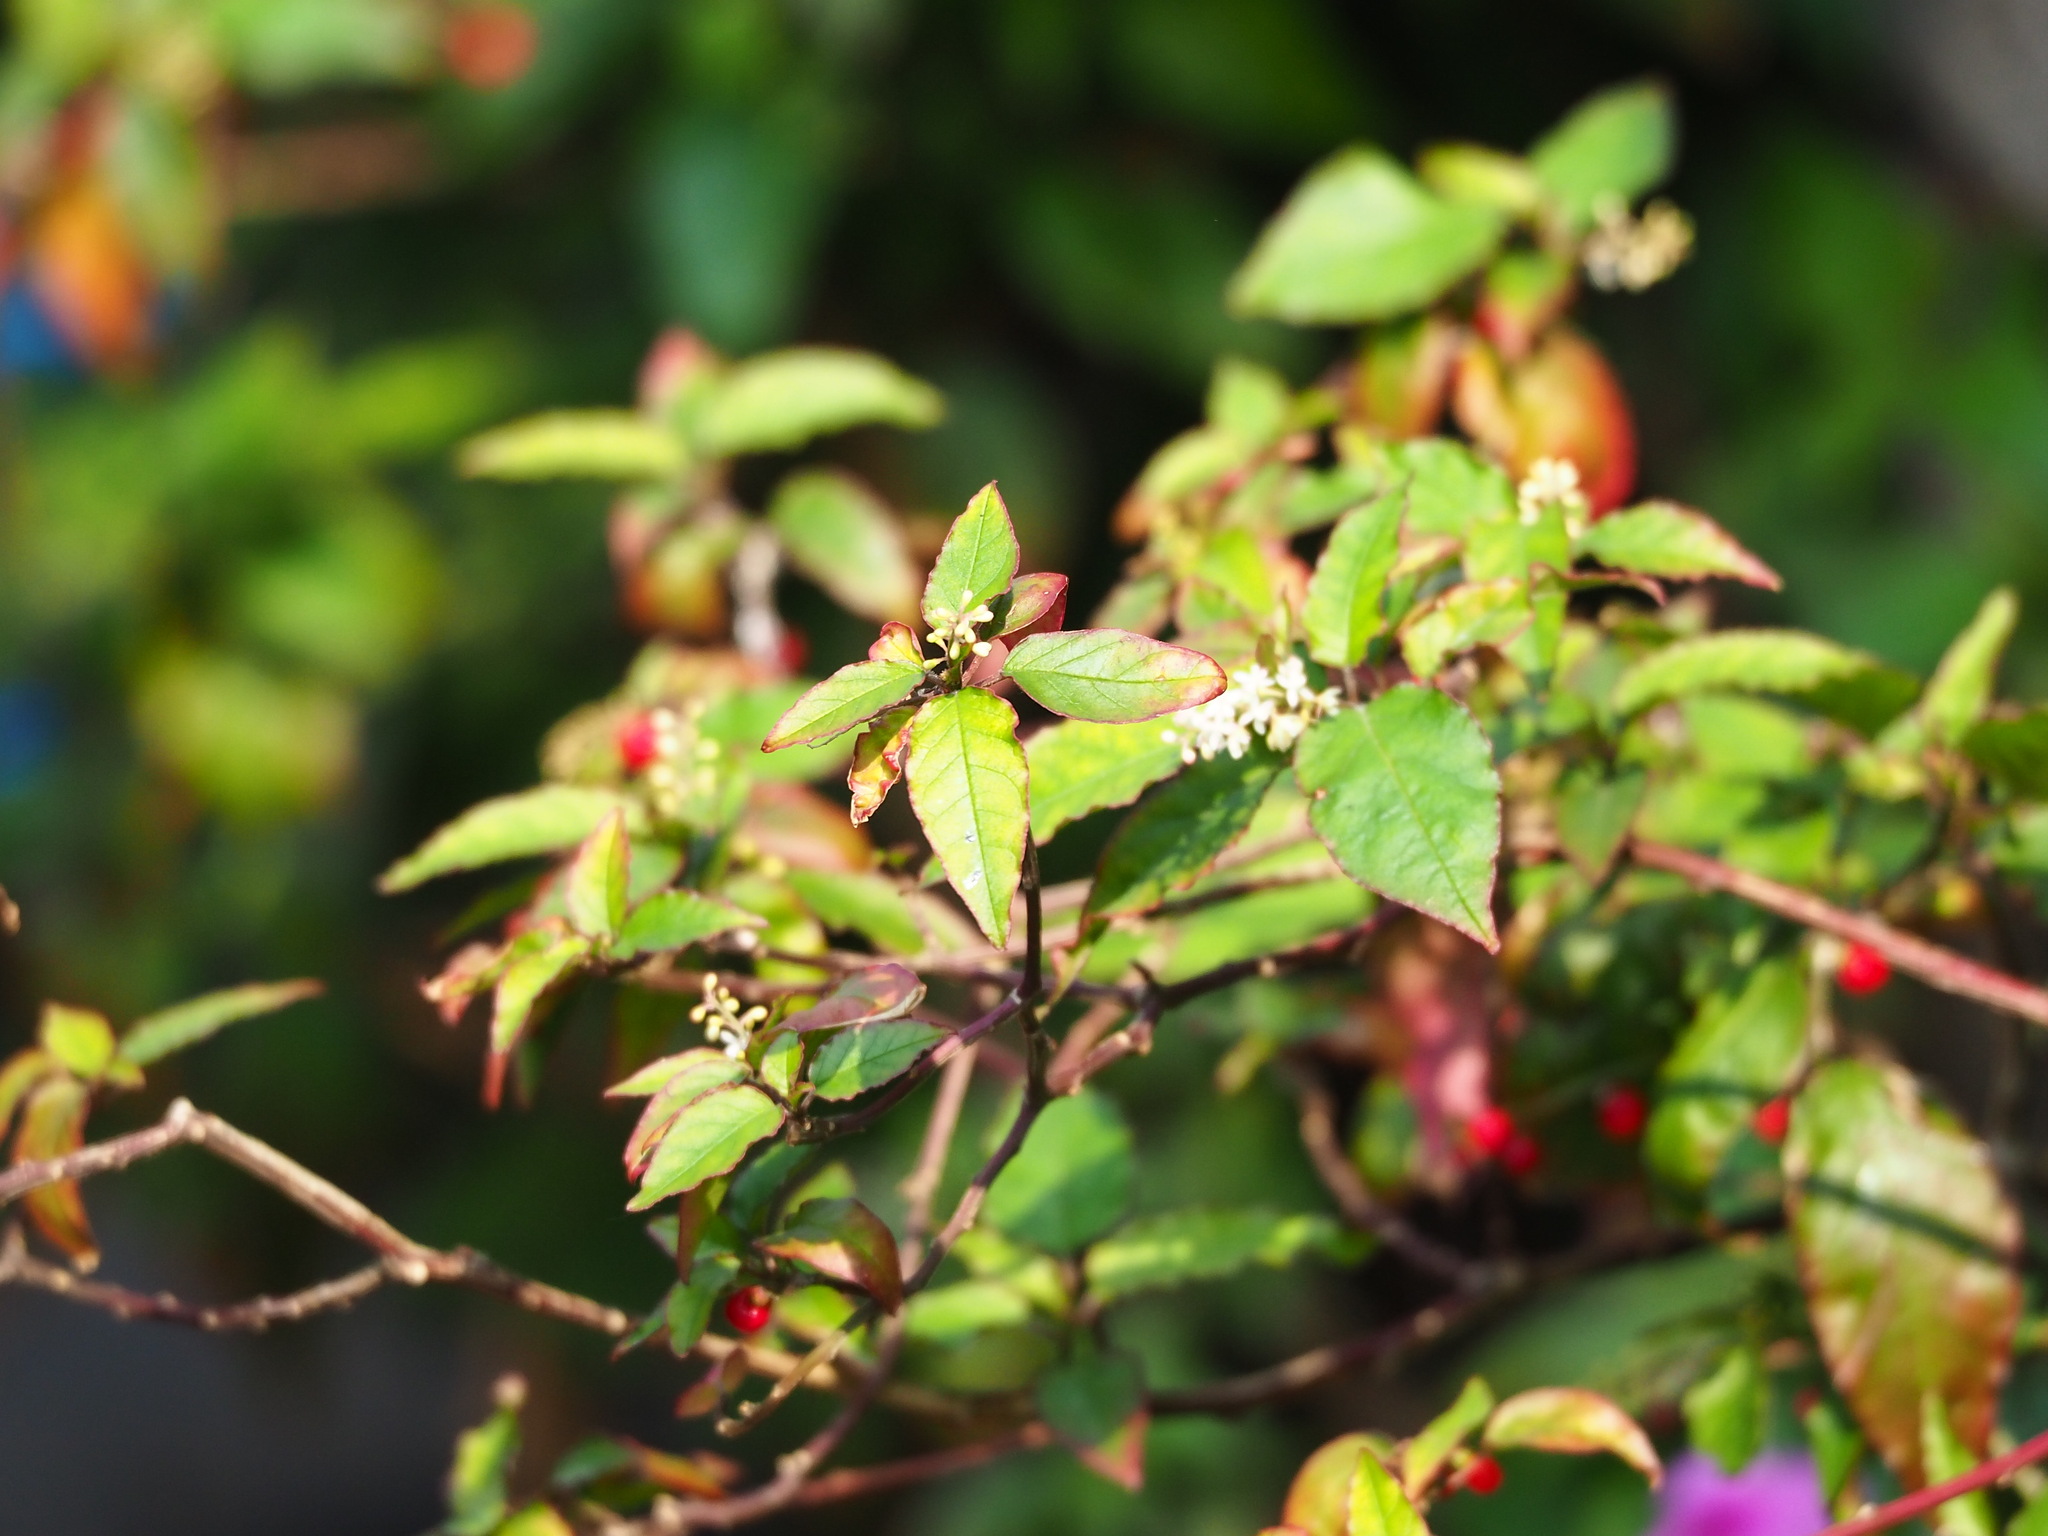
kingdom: Plantae
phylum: Tracheophyta
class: Magnoliopsida
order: Caryophyllales
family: Phytolaccaceae
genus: Rivina
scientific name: Rivina humilis
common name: Rougeplant
